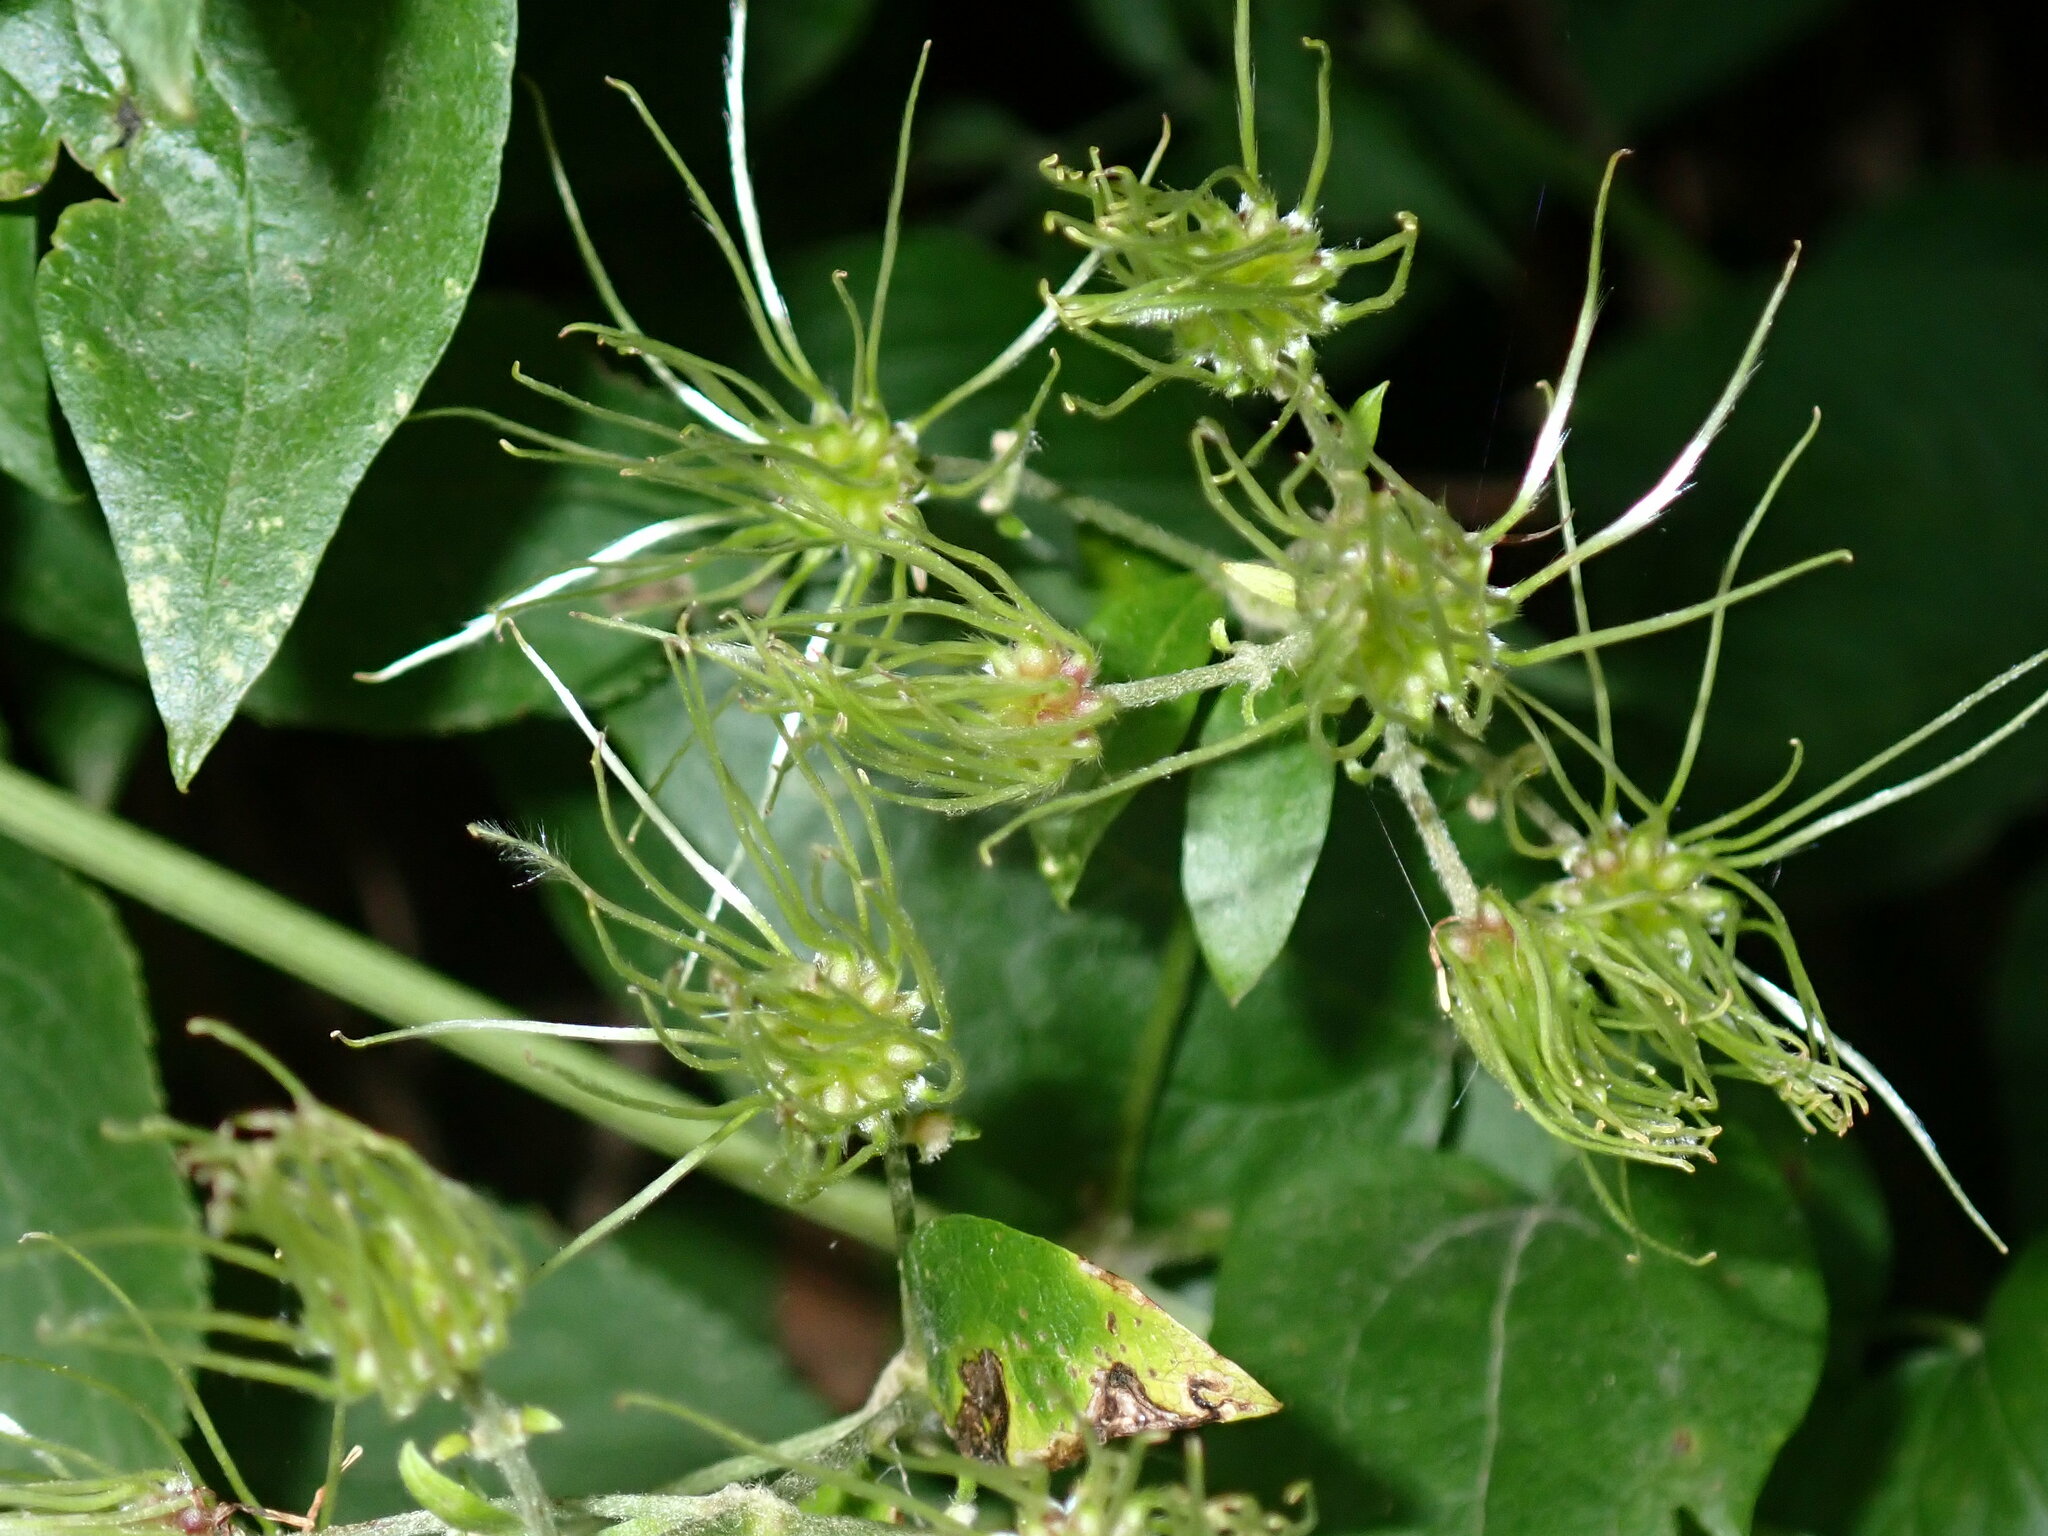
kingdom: Plantae
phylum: Tracheophyta
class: Magnoliopsida
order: Ranunculales
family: Ranunculaceae
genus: Clematis
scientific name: Clematis vitalba
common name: Evergreen clematis
